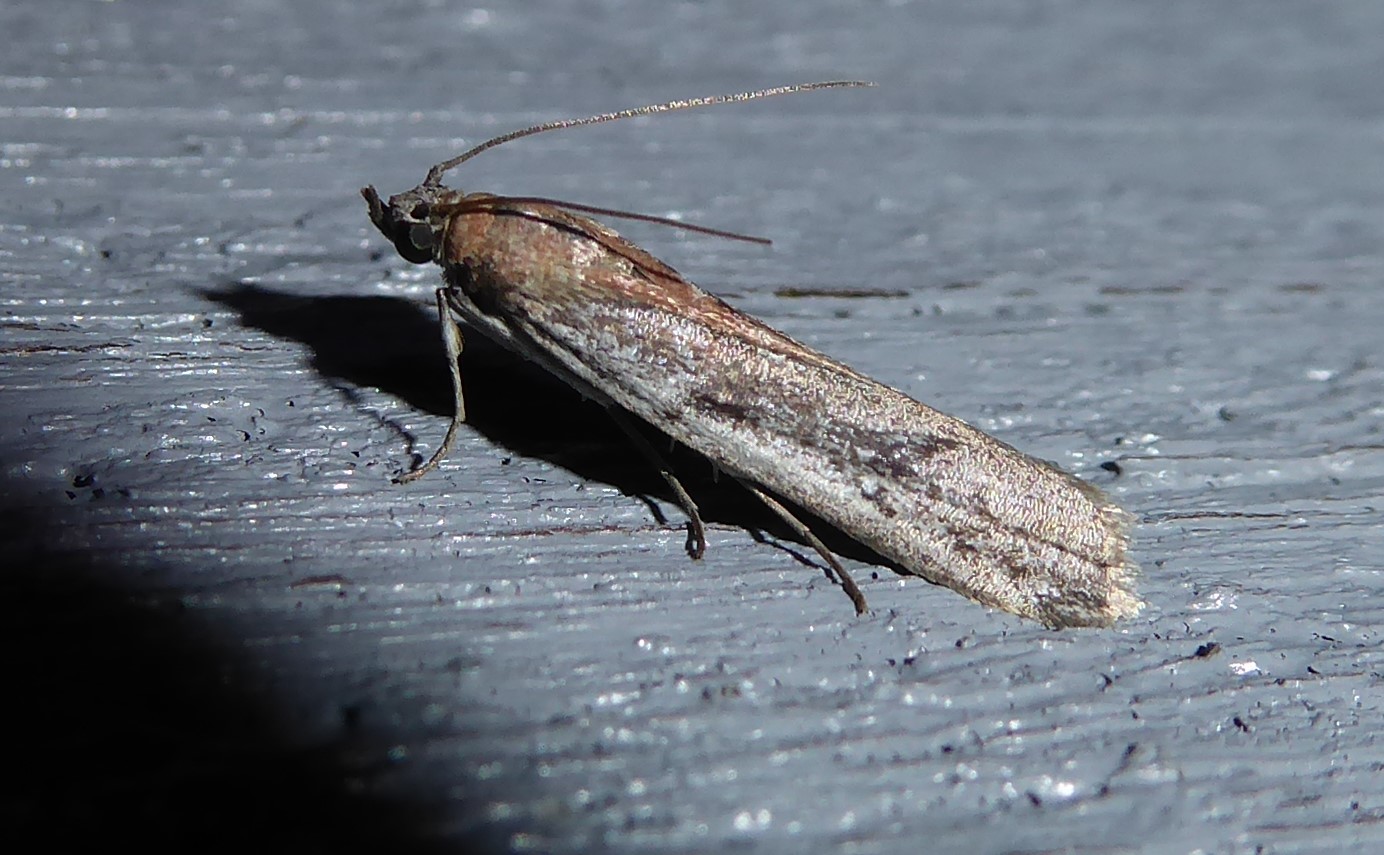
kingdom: Animalia
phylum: Arthropoda
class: Insecta
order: Lepidoptera
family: Pyralidae
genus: Patagoniodes
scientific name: Patagoniodes farinaria
